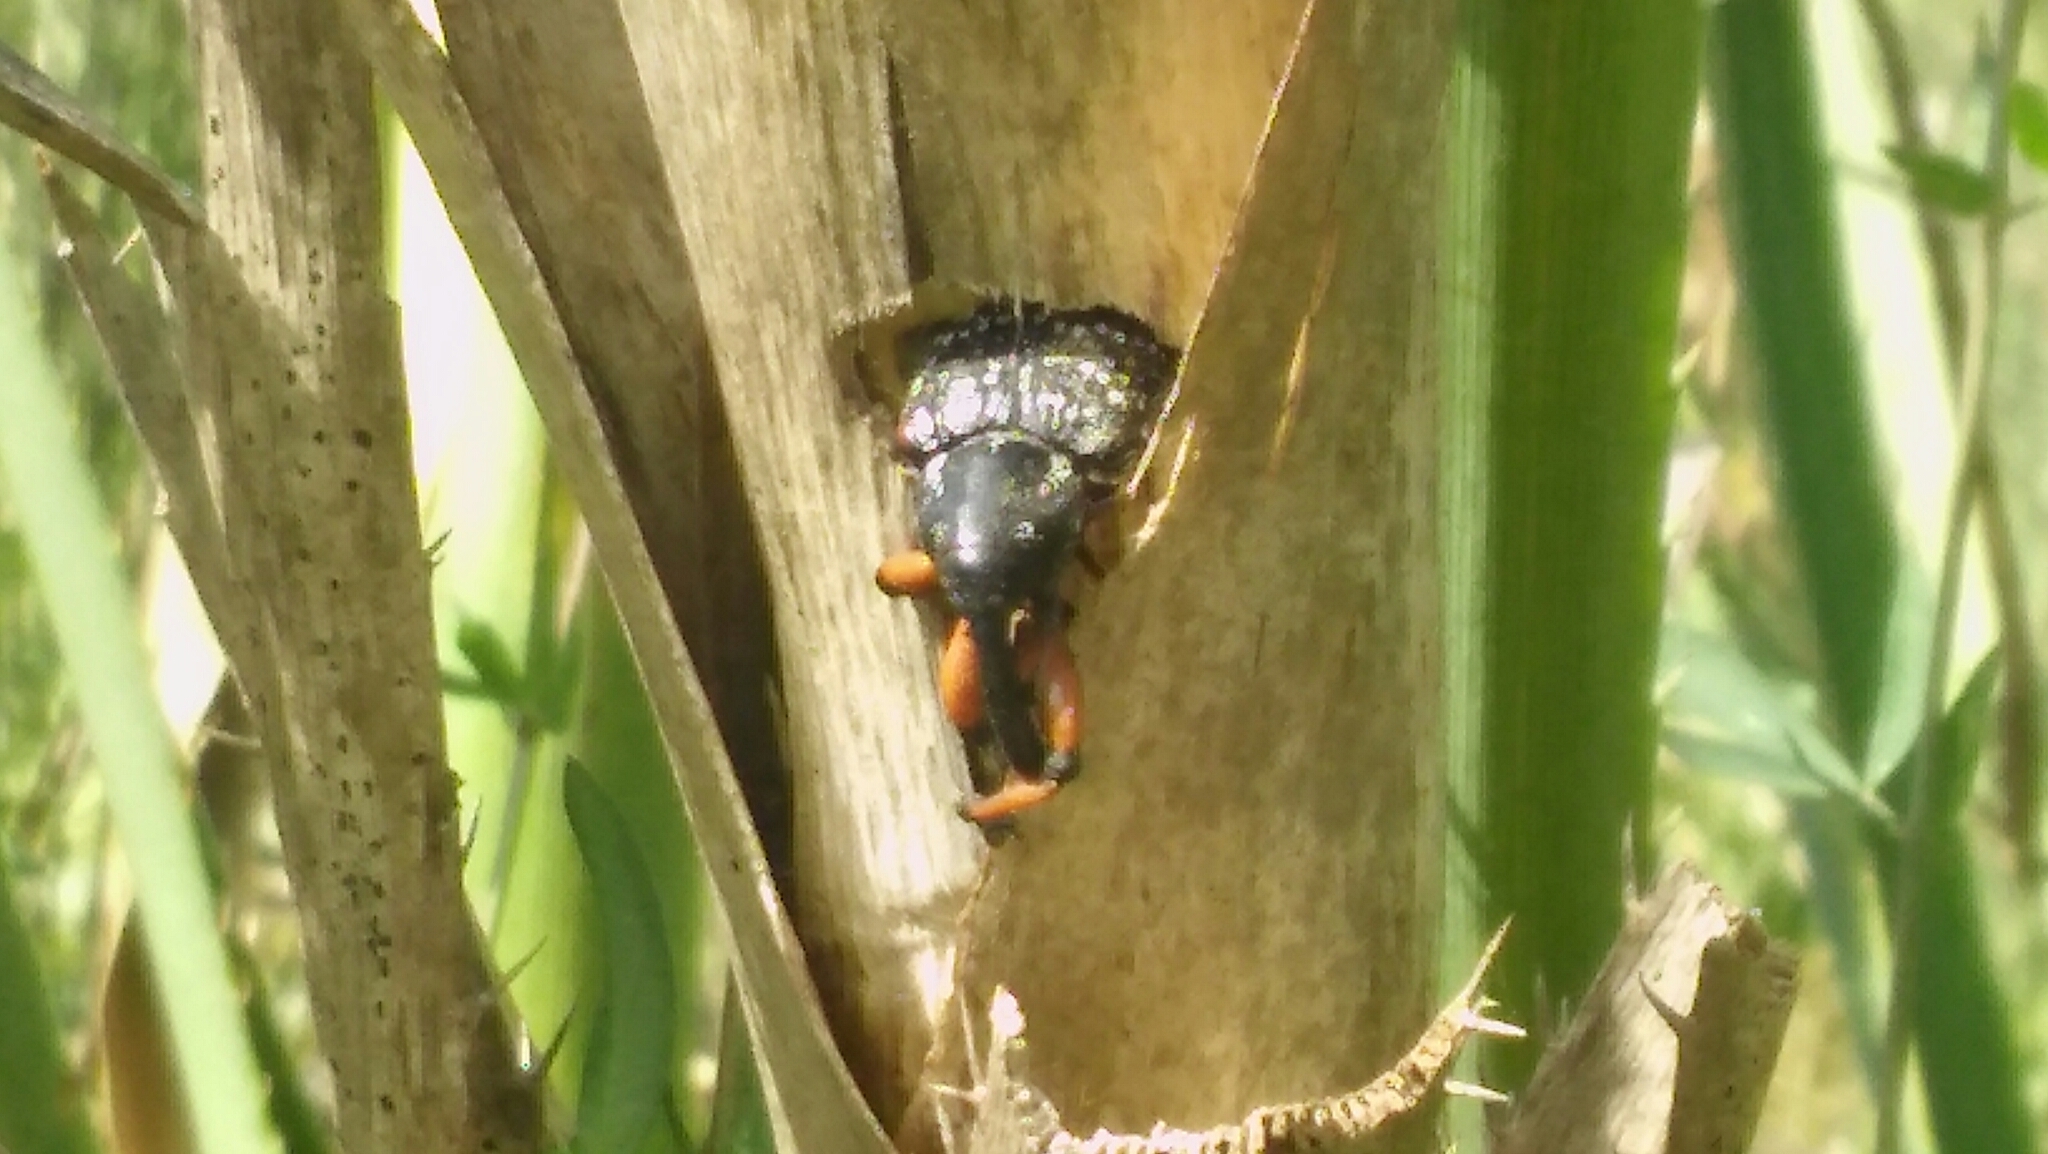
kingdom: Animalia
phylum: Arthropoda
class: Insecta
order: Coleoptera
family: Curculionidae
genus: Heilipodus
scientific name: Heilipodus erythropus
